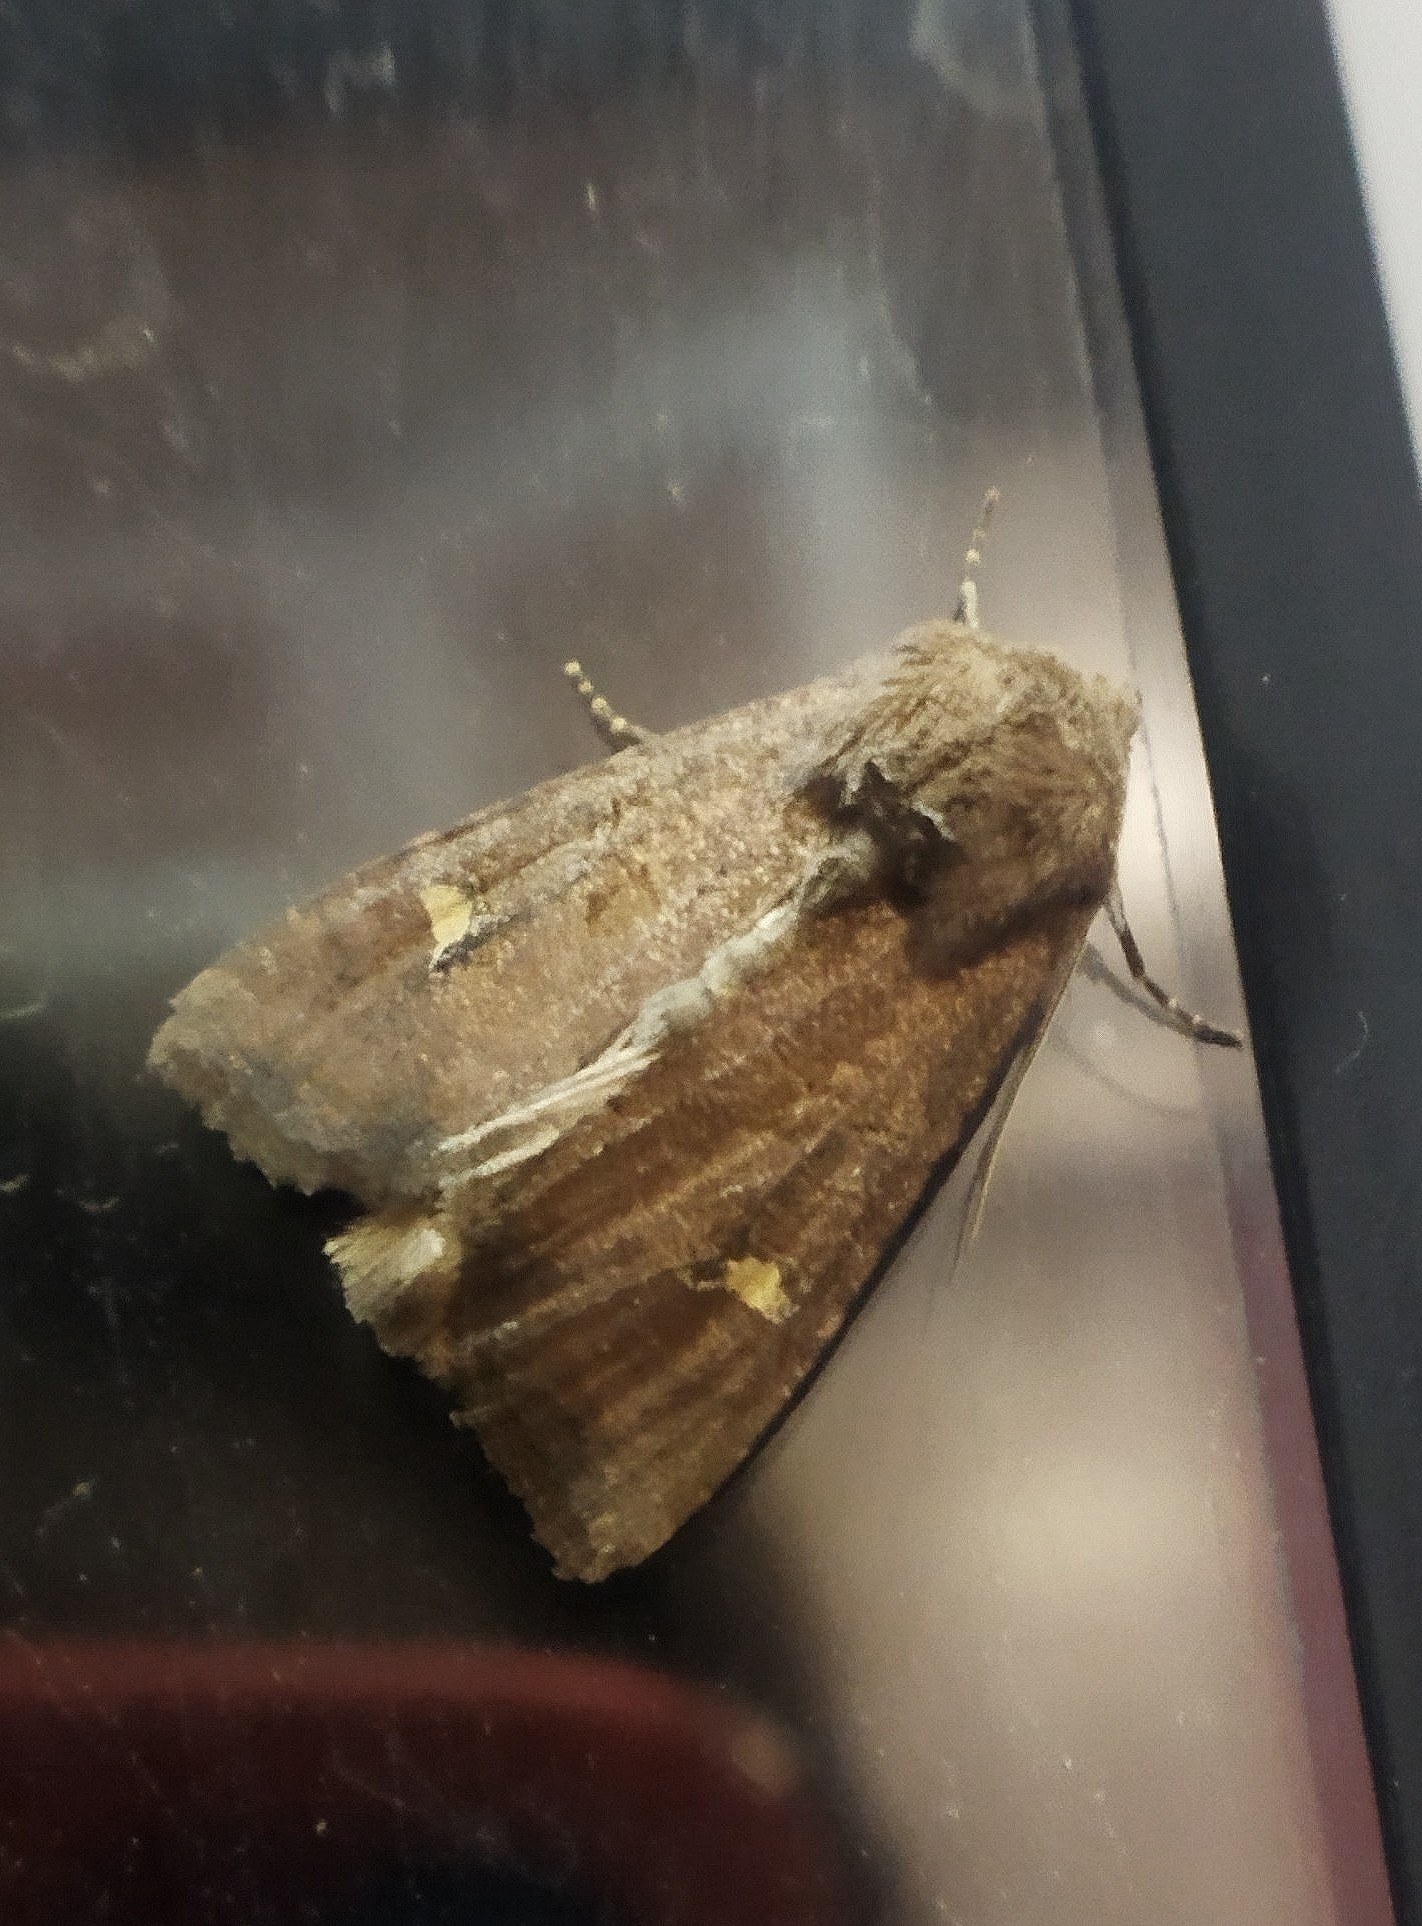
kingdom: Animalia
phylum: Arthropoda
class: Insecta
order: Lepidoptera
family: Noctuidae
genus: Helotropha
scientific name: Helotropha leucostigma
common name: The crescent
